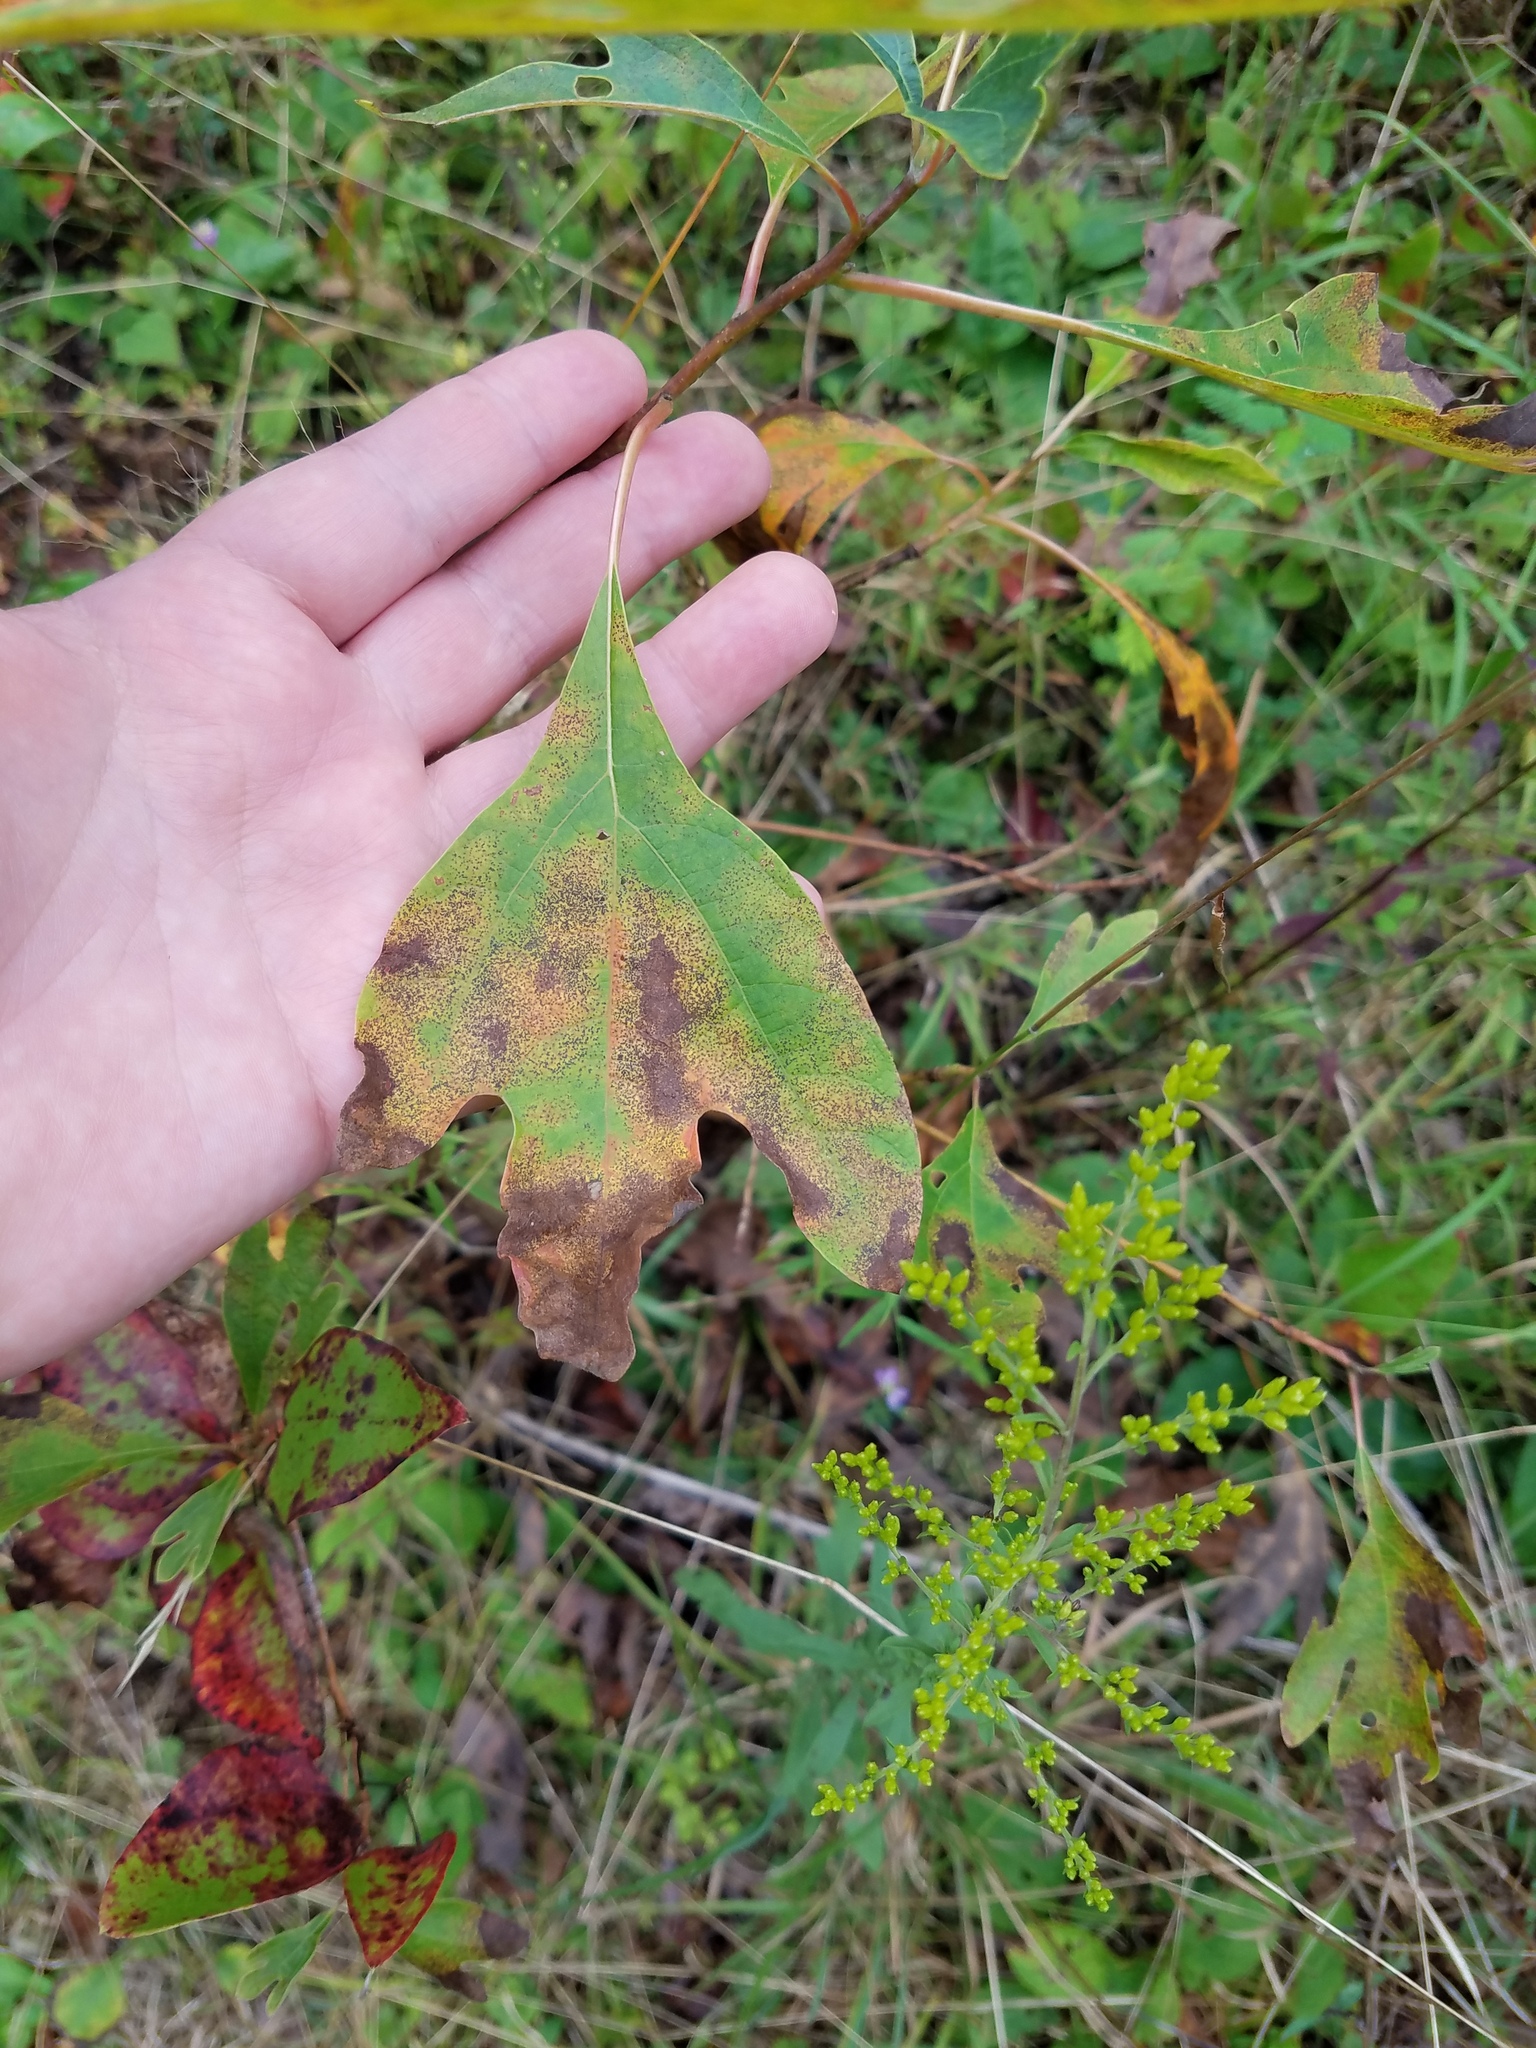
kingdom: Plantae
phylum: Tracheophyta
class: Magnoliopsida
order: Laurales
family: Lauraceae
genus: Sassafras
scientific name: Sassafras albidum
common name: Sassafras
